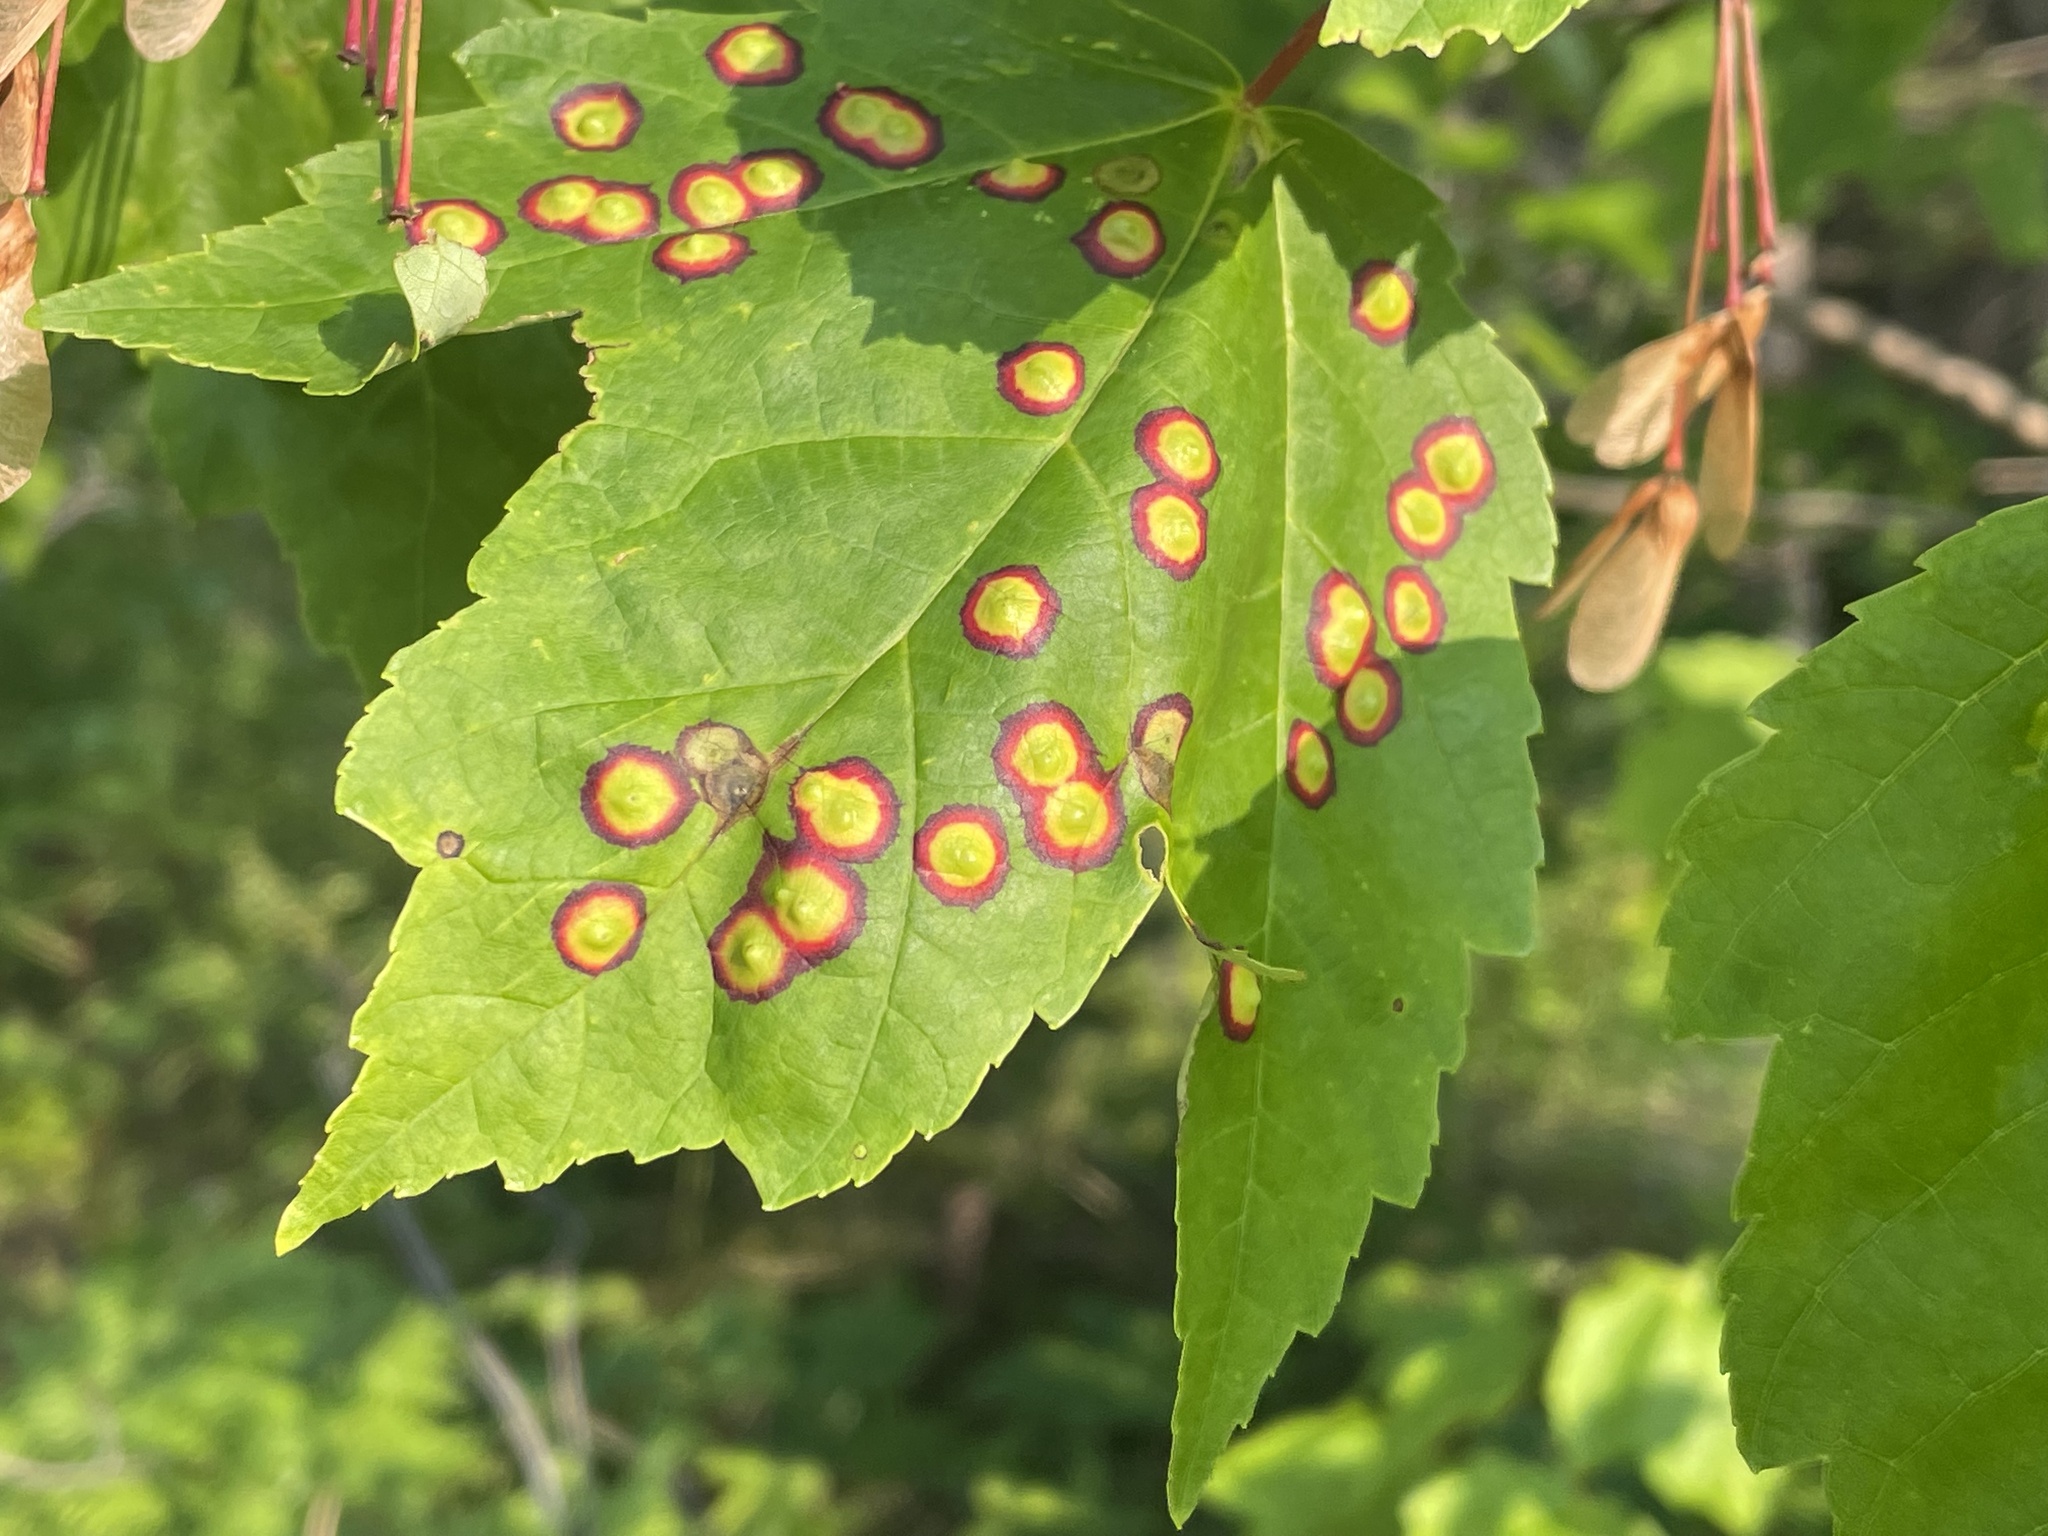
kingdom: Animalia
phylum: Arthropoda
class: Insecta
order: Diptera
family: Cecidomyiidae
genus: Acericecis
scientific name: Acericecis ocellaris
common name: Ocellate gall midge
